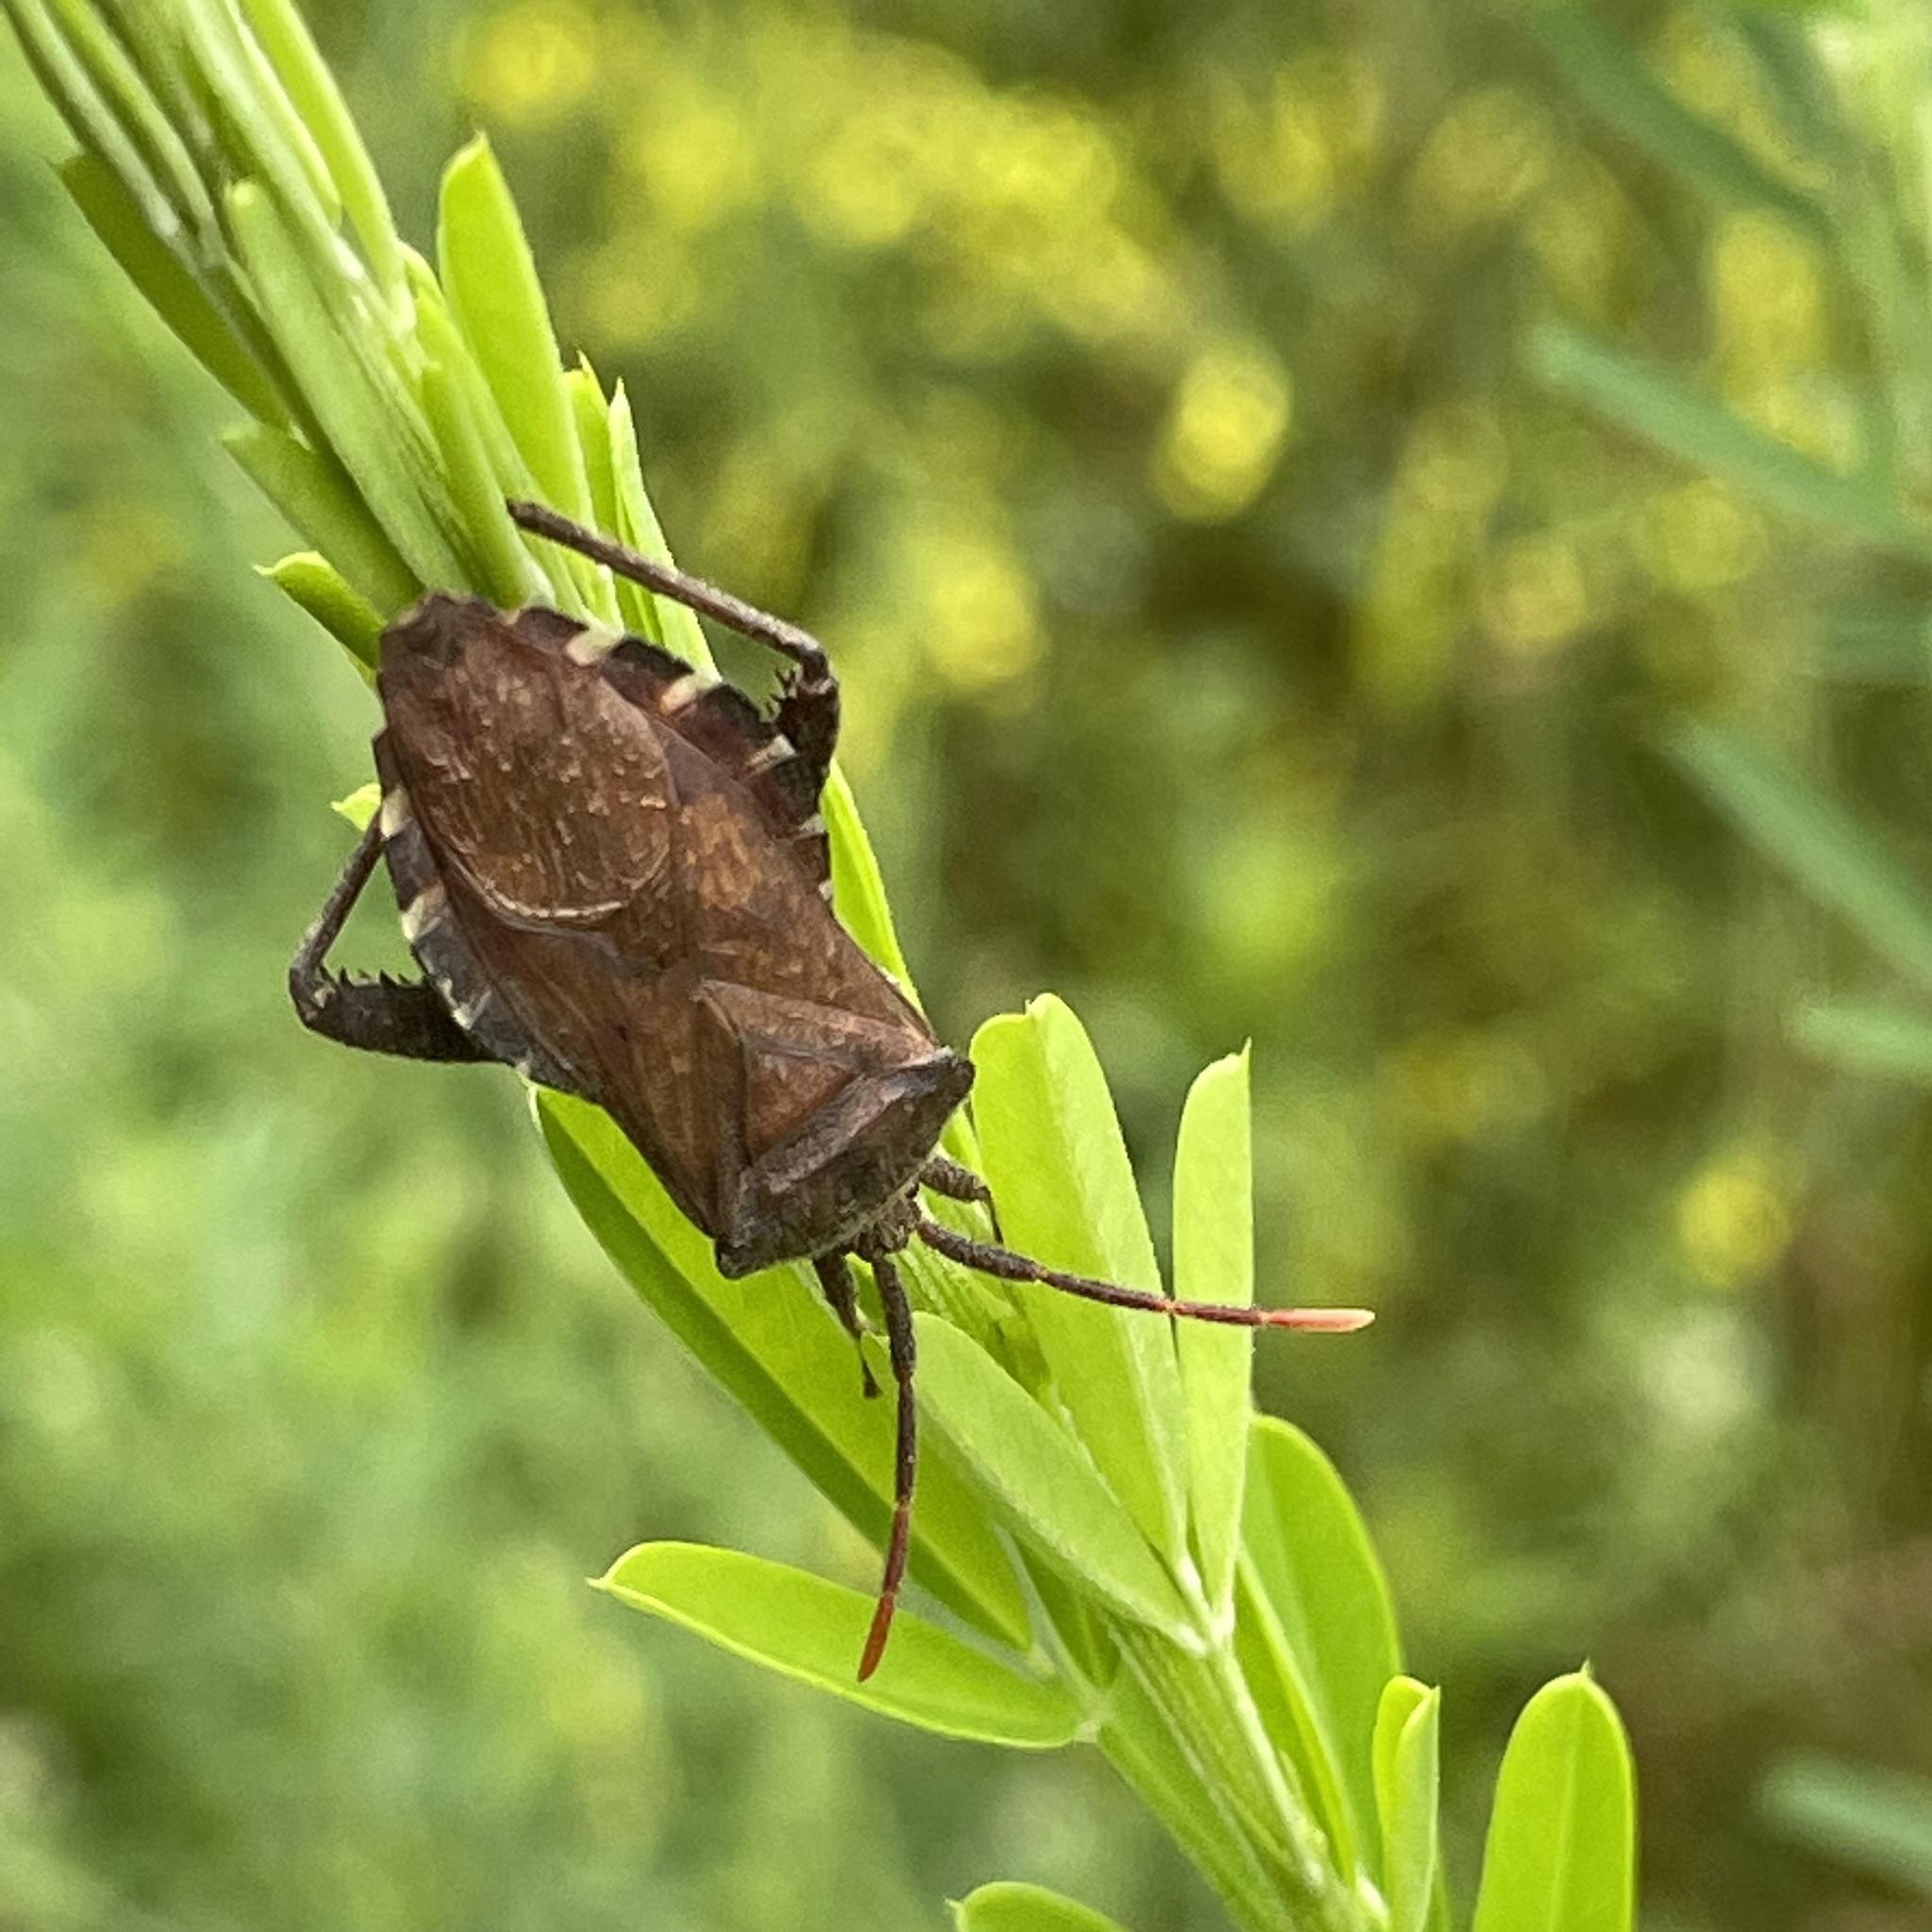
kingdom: Animalia
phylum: Arthropoda
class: Insecta
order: Hemiptera
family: Coreidae
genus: Piezogaster
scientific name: Piezogaster calcarator
